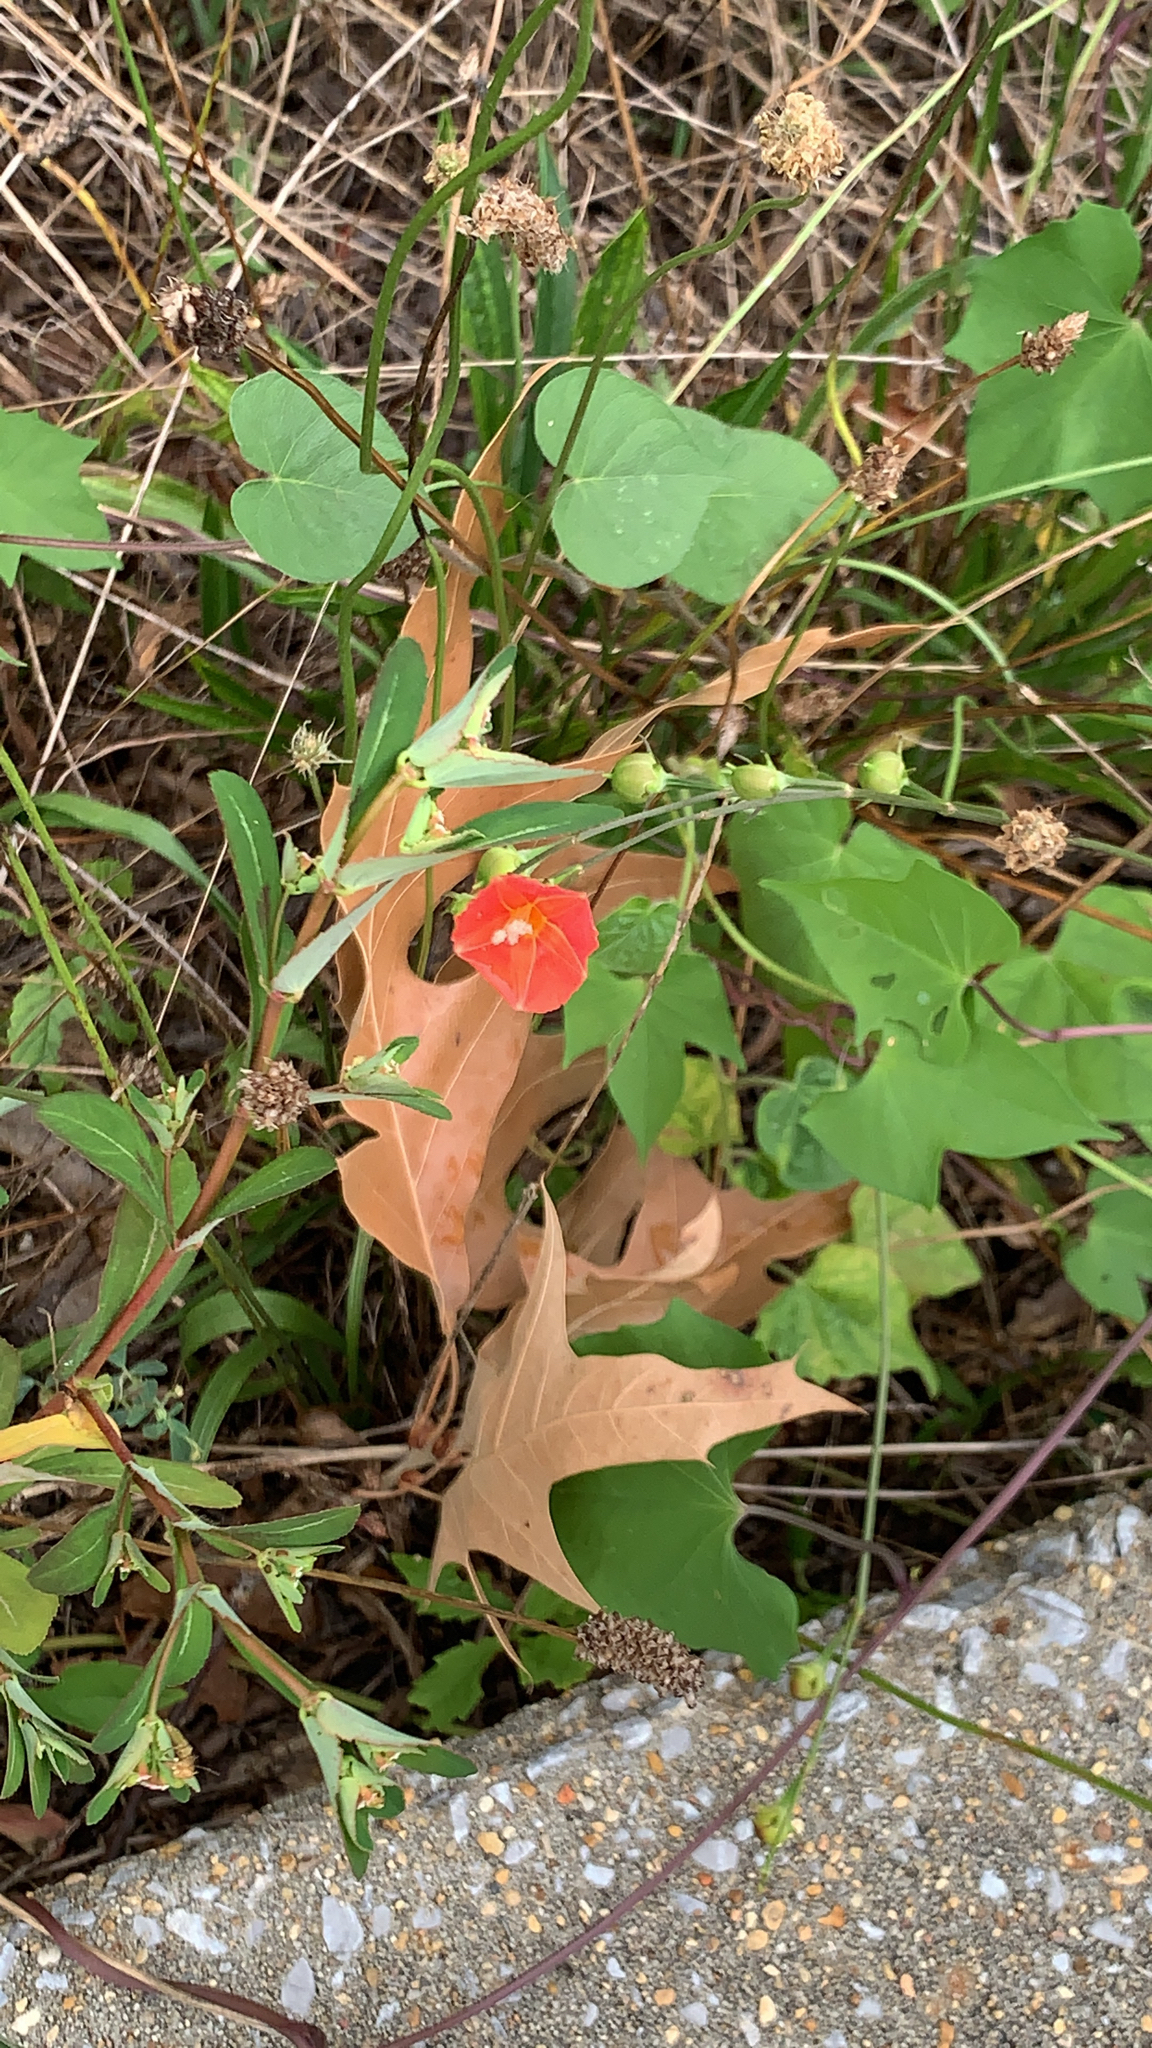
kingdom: Plantae
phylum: Tracheophyta
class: Magnoliopsida
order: Solanales
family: Convolvulaceae
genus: Ipomoea
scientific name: Ipomoea hederifolia
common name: Ivy-leaf morning-glory
